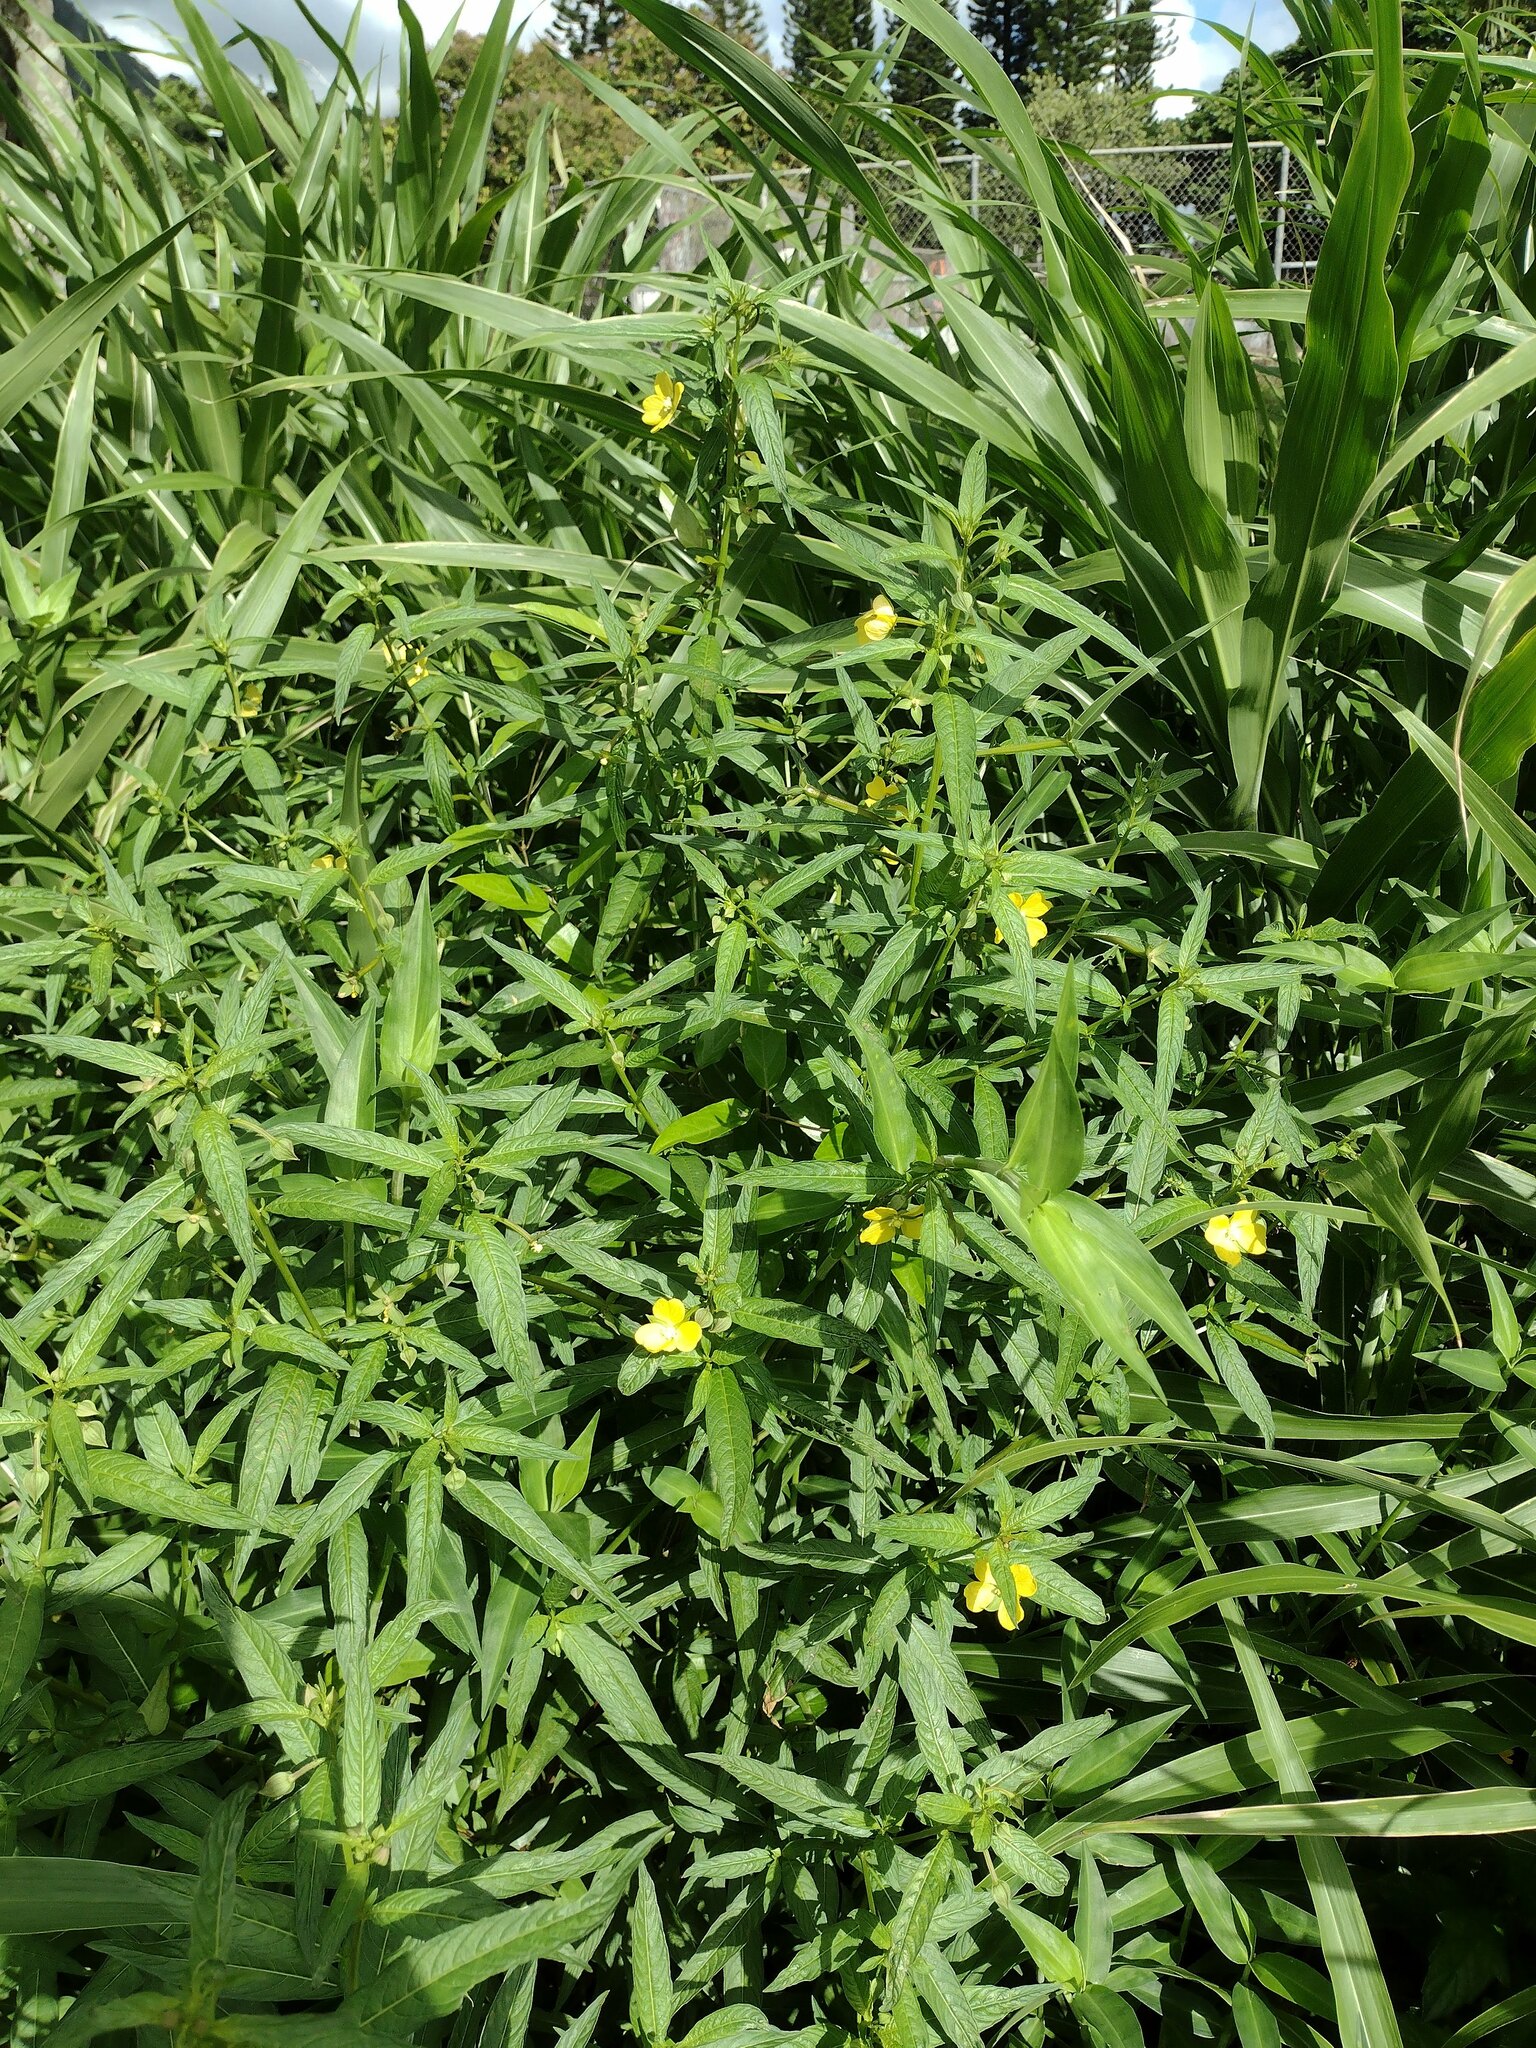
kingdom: Plantae
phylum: Tracheophyta
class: Magnoliopsida
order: Myrtales
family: Onagraceae
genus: Ludwigia
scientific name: Ludwigia octovalvis
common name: Water-primrose
